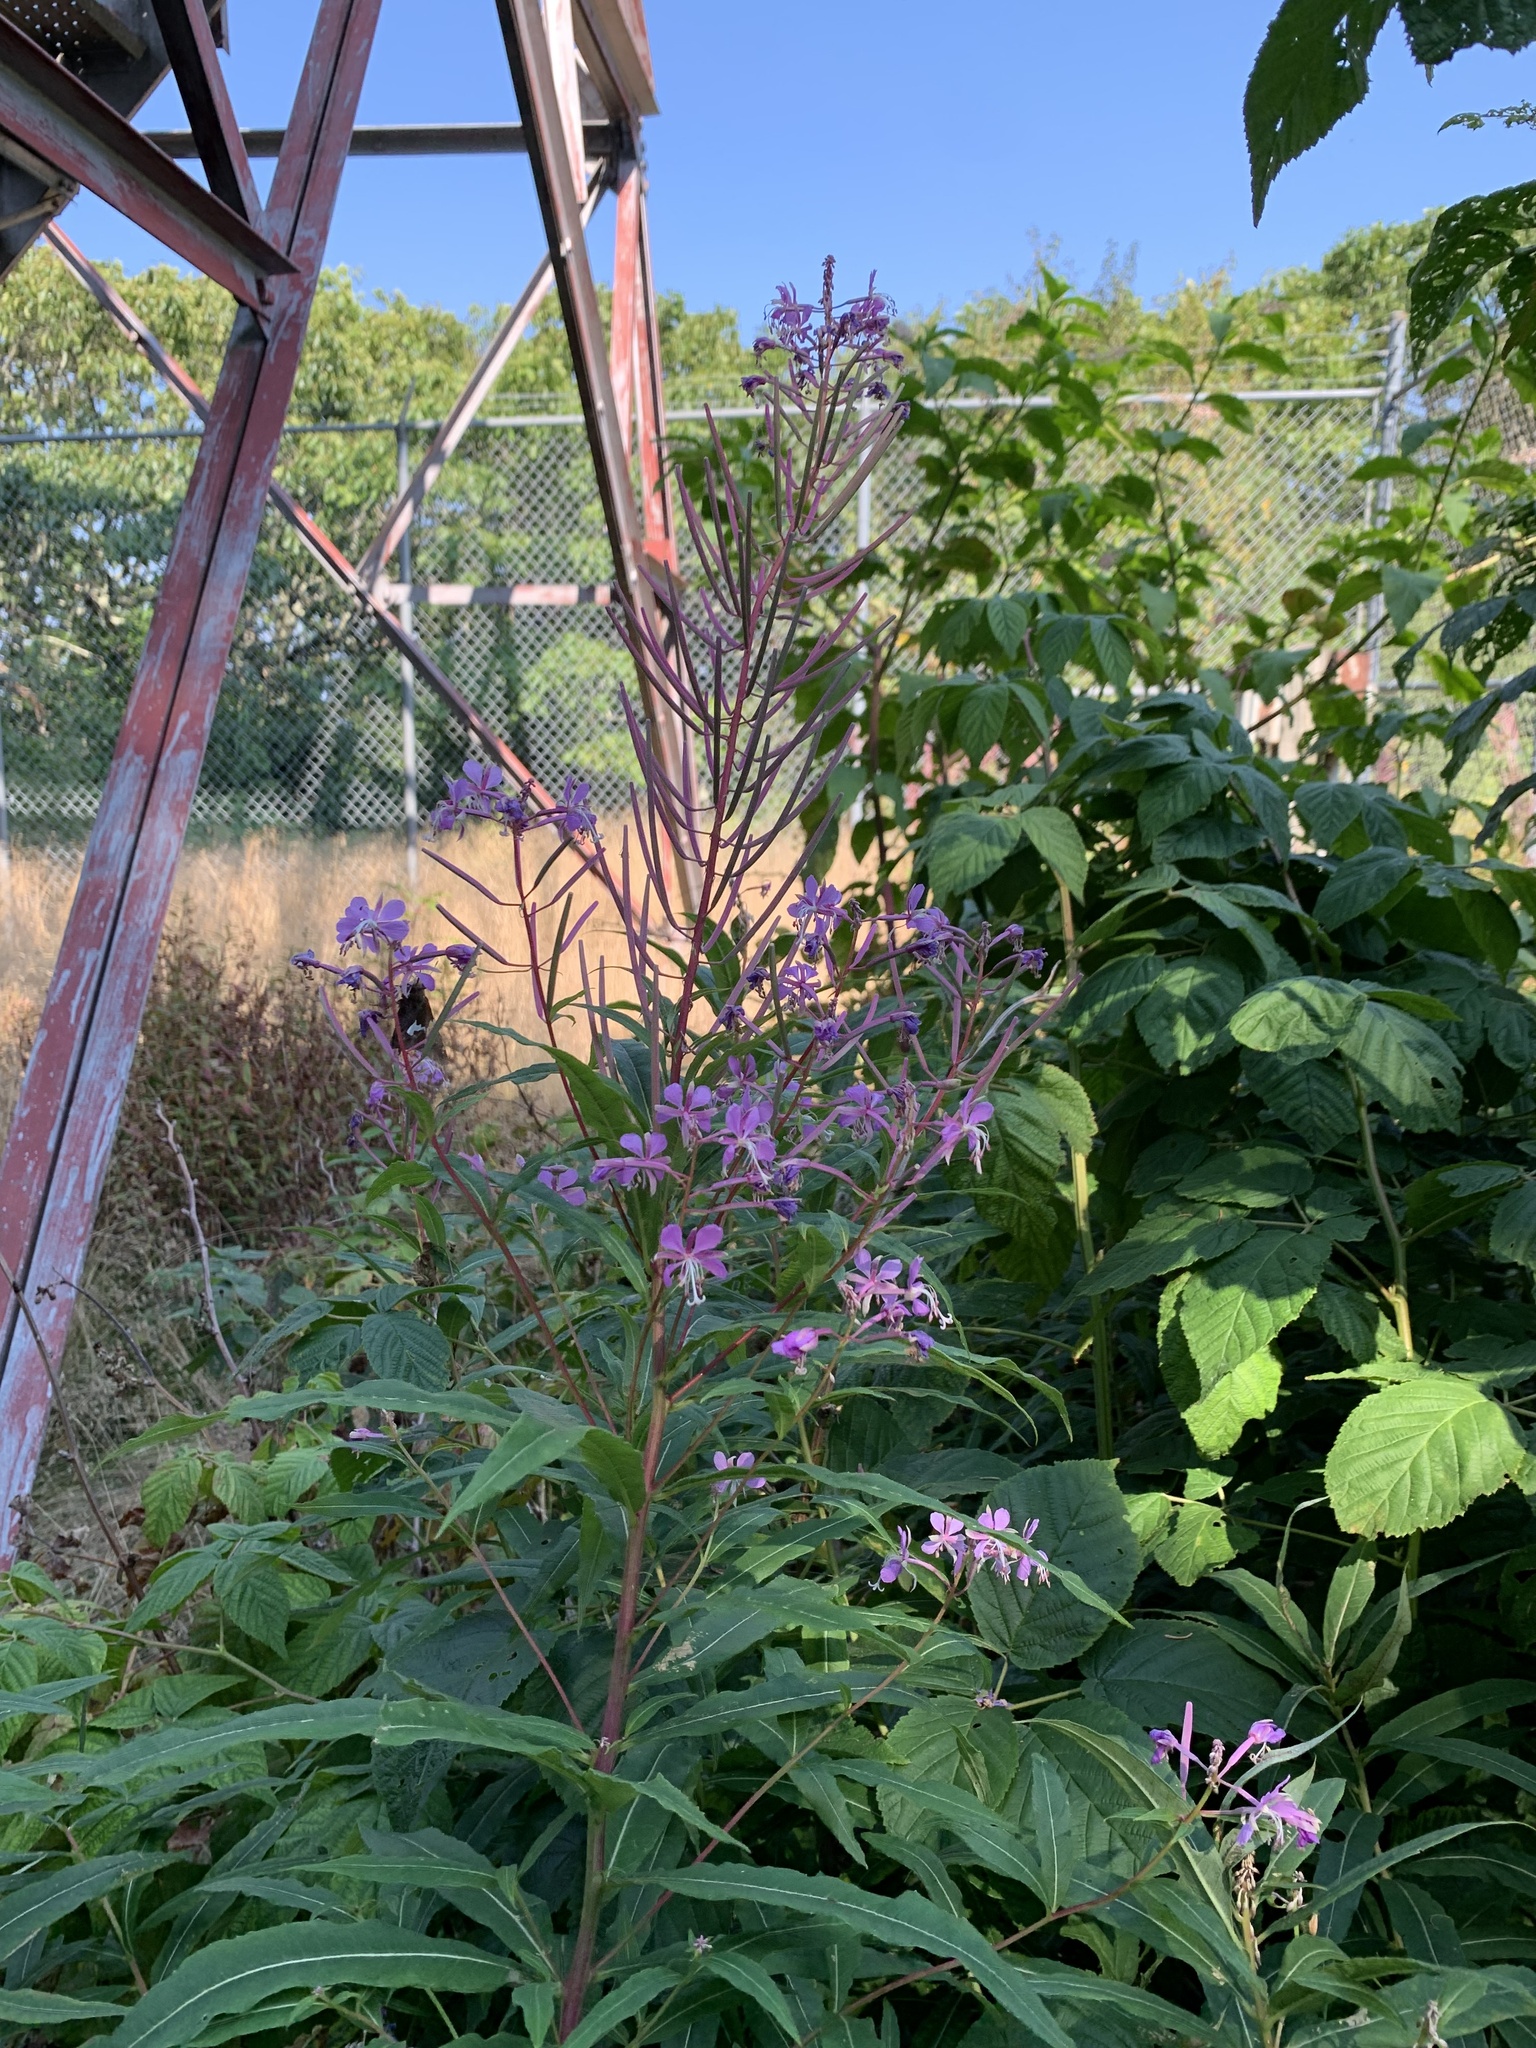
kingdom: Plantae
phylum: Tracheophyta
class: Magnoliopsida
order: Myrtales
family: Onagraceae
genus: Chamaenerion
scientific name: Chamaenerion angustifolium
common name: Fireweed
